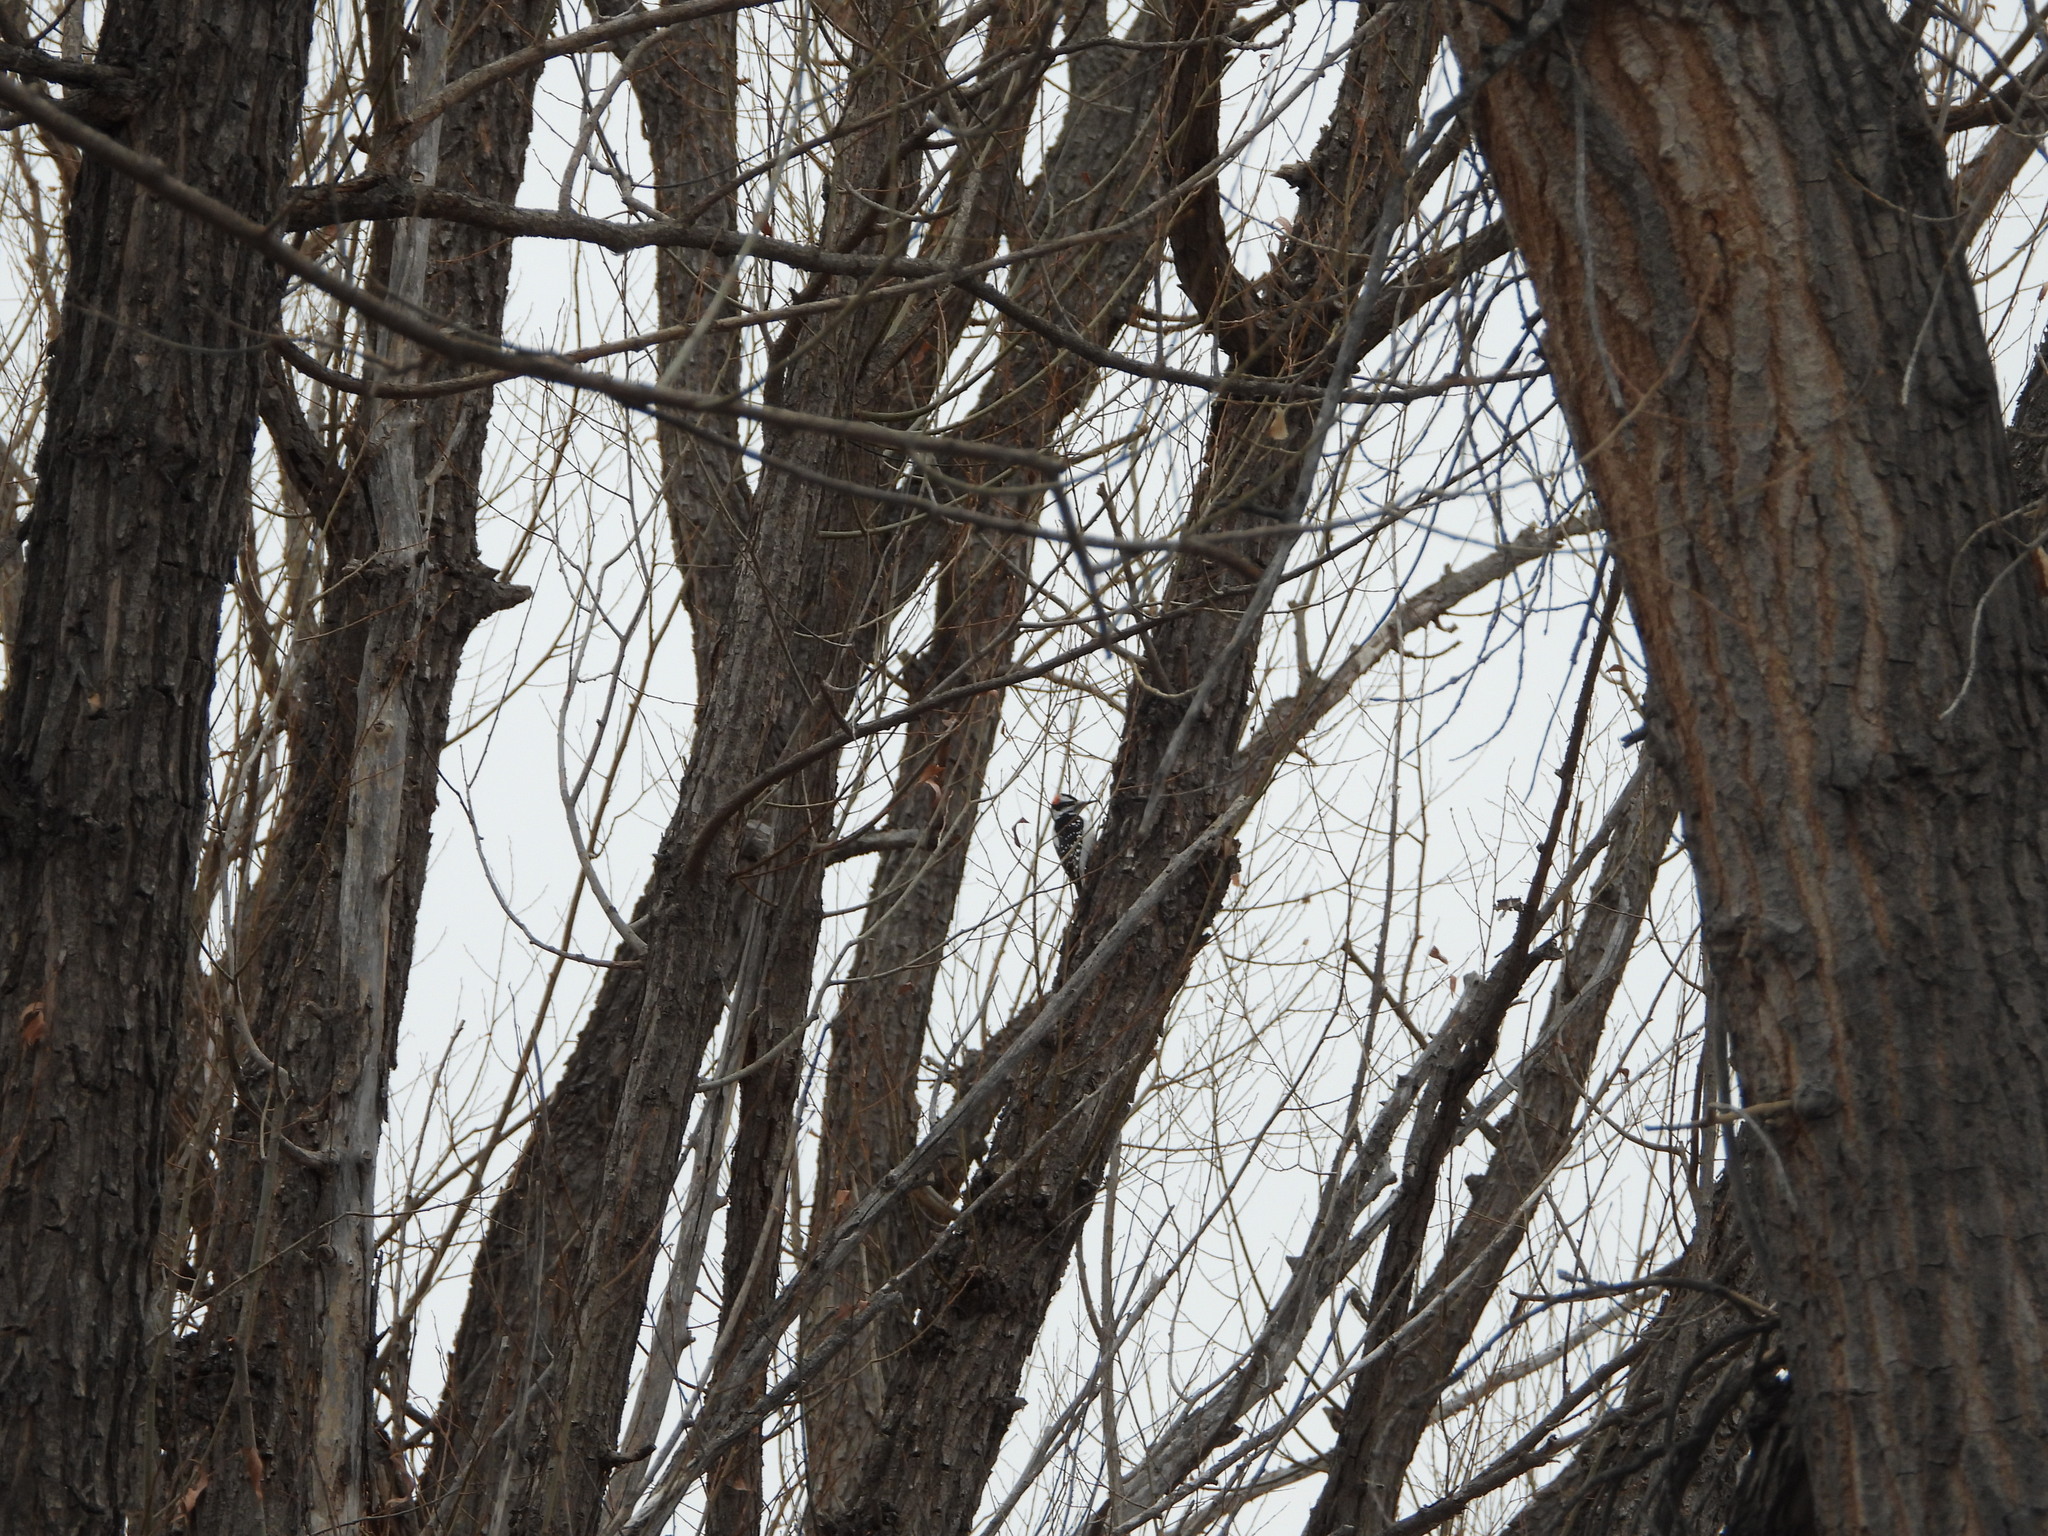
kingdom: Animalia
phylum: Chordata
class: Aves
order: Piciformes
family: Picidae
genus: Leuconotopicus
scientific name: Leuconotopicus villosus
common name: Hairy woodpecker
